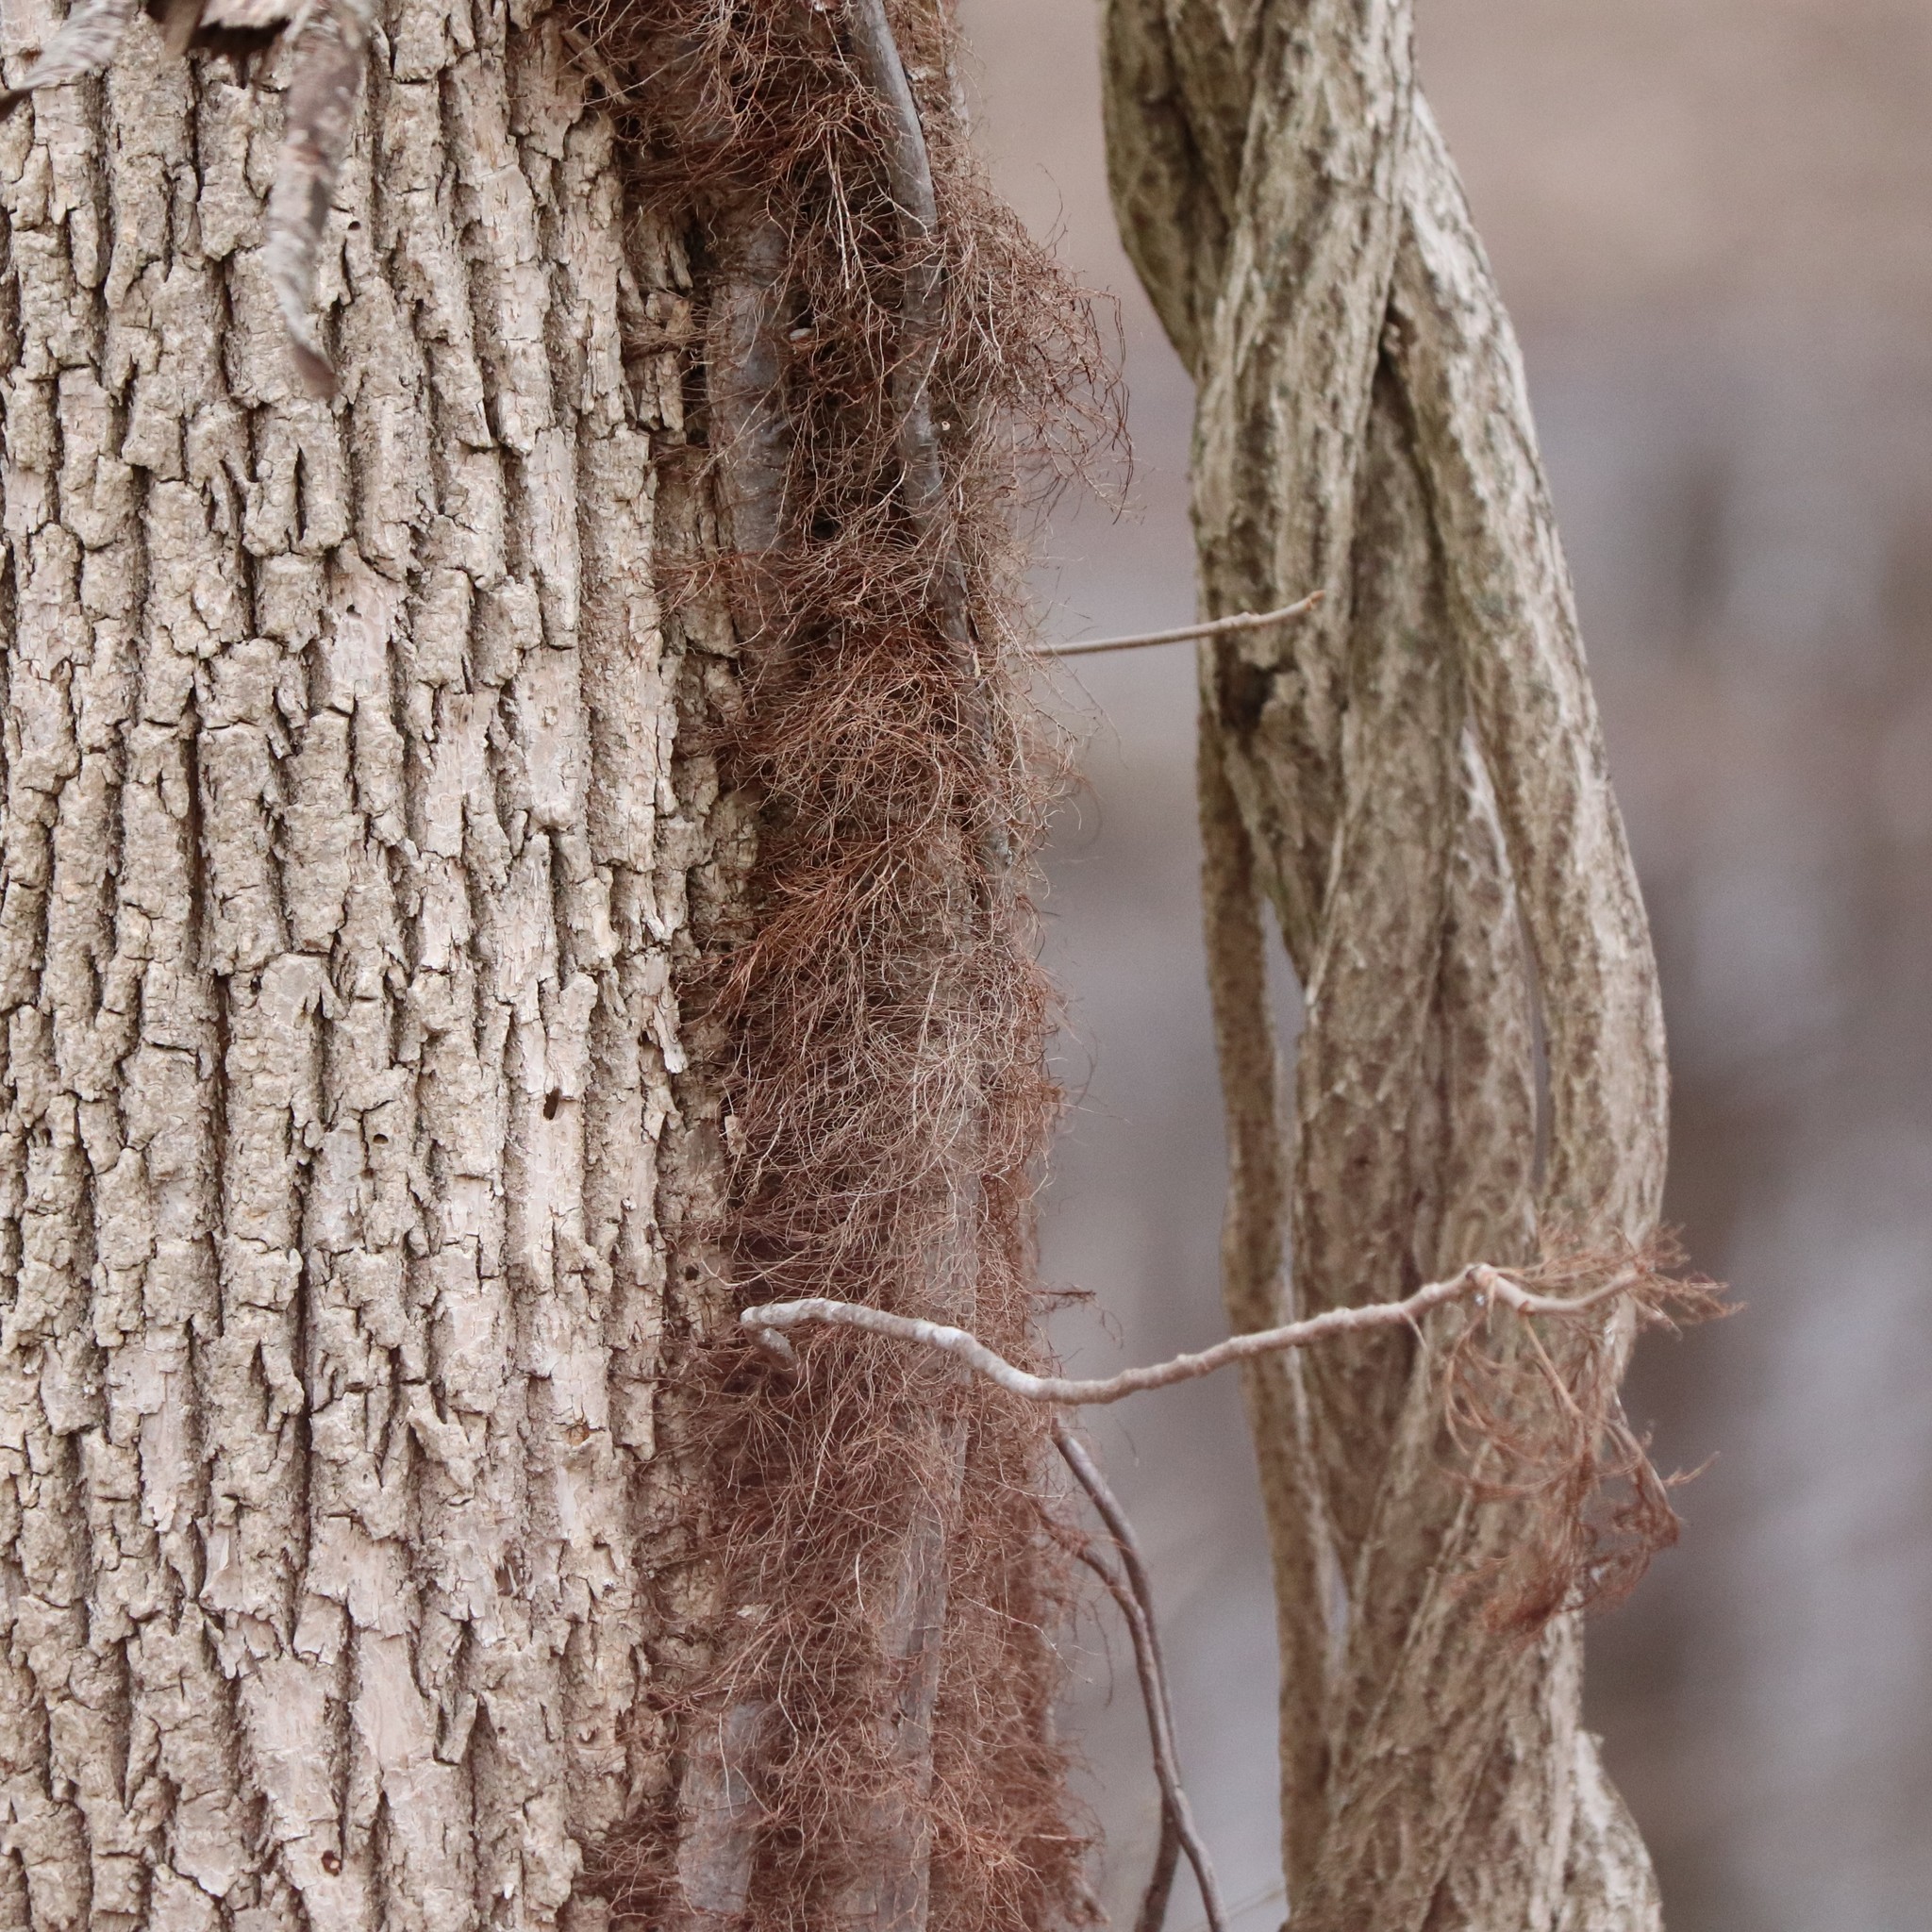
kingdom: Plantae
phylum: Tracheophyta
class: Magnoliopsida
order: Sapindales
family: Anacardiaceae
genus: Toxicodendron
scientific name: Toxicodendron radicans
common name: Poison ivy
